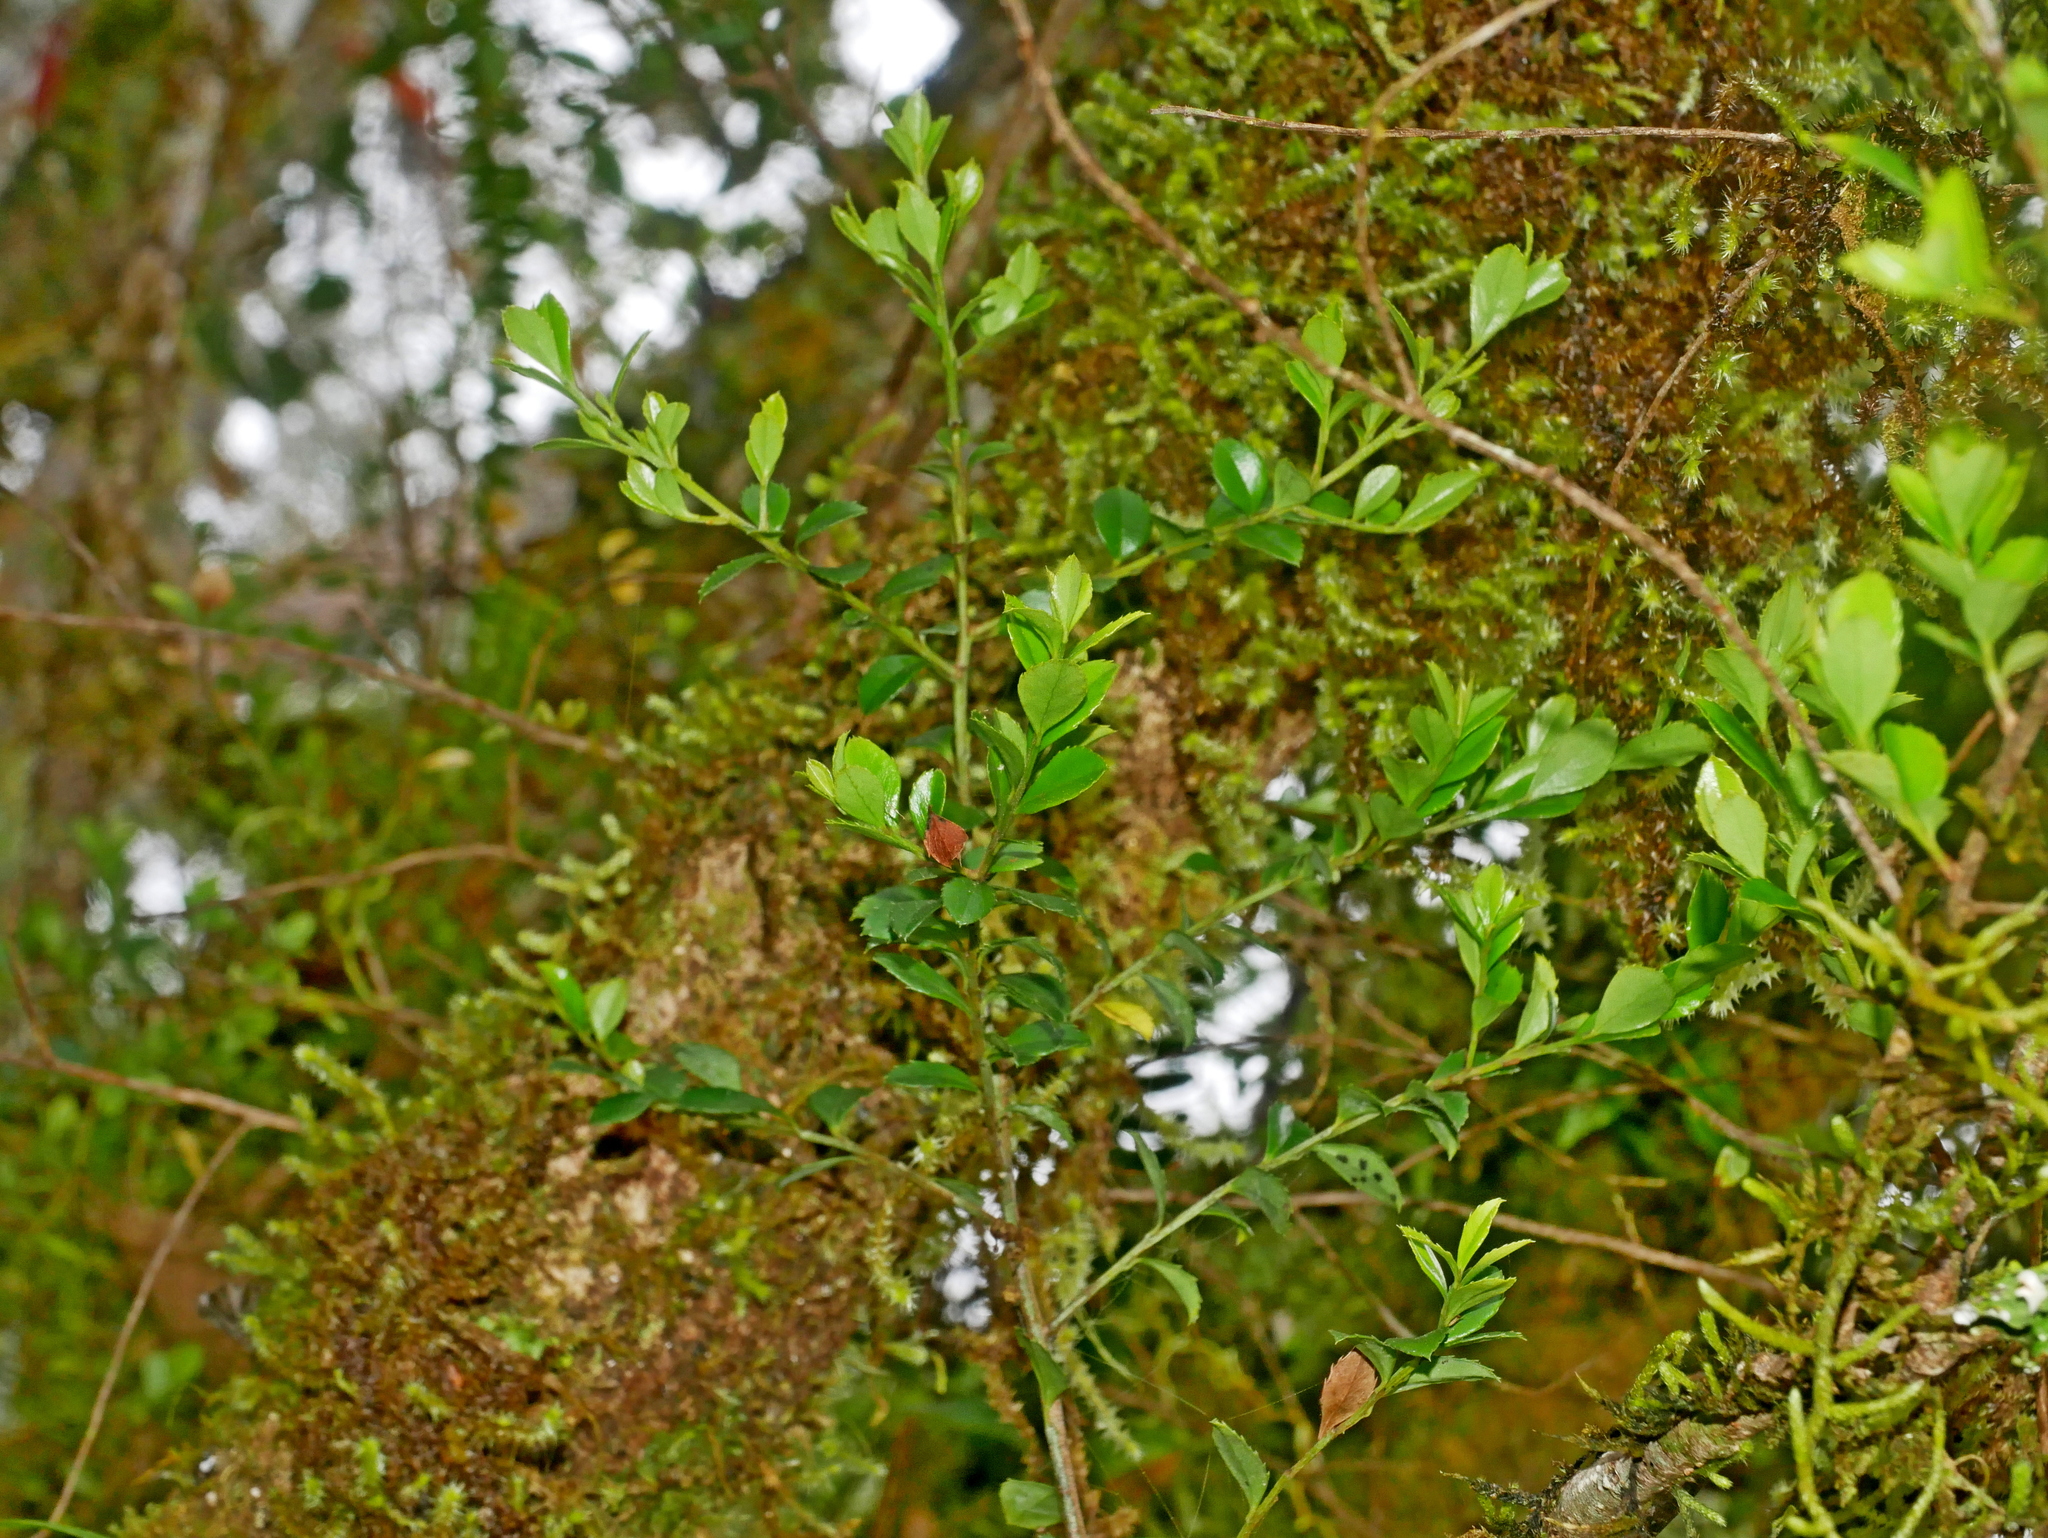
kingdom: Plantae
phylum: Tracheophyta
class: Magnoliopsida
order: Ericales
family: Primulaceae
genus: Myrsine
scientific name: Myrsine africana
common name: African-boxwood
